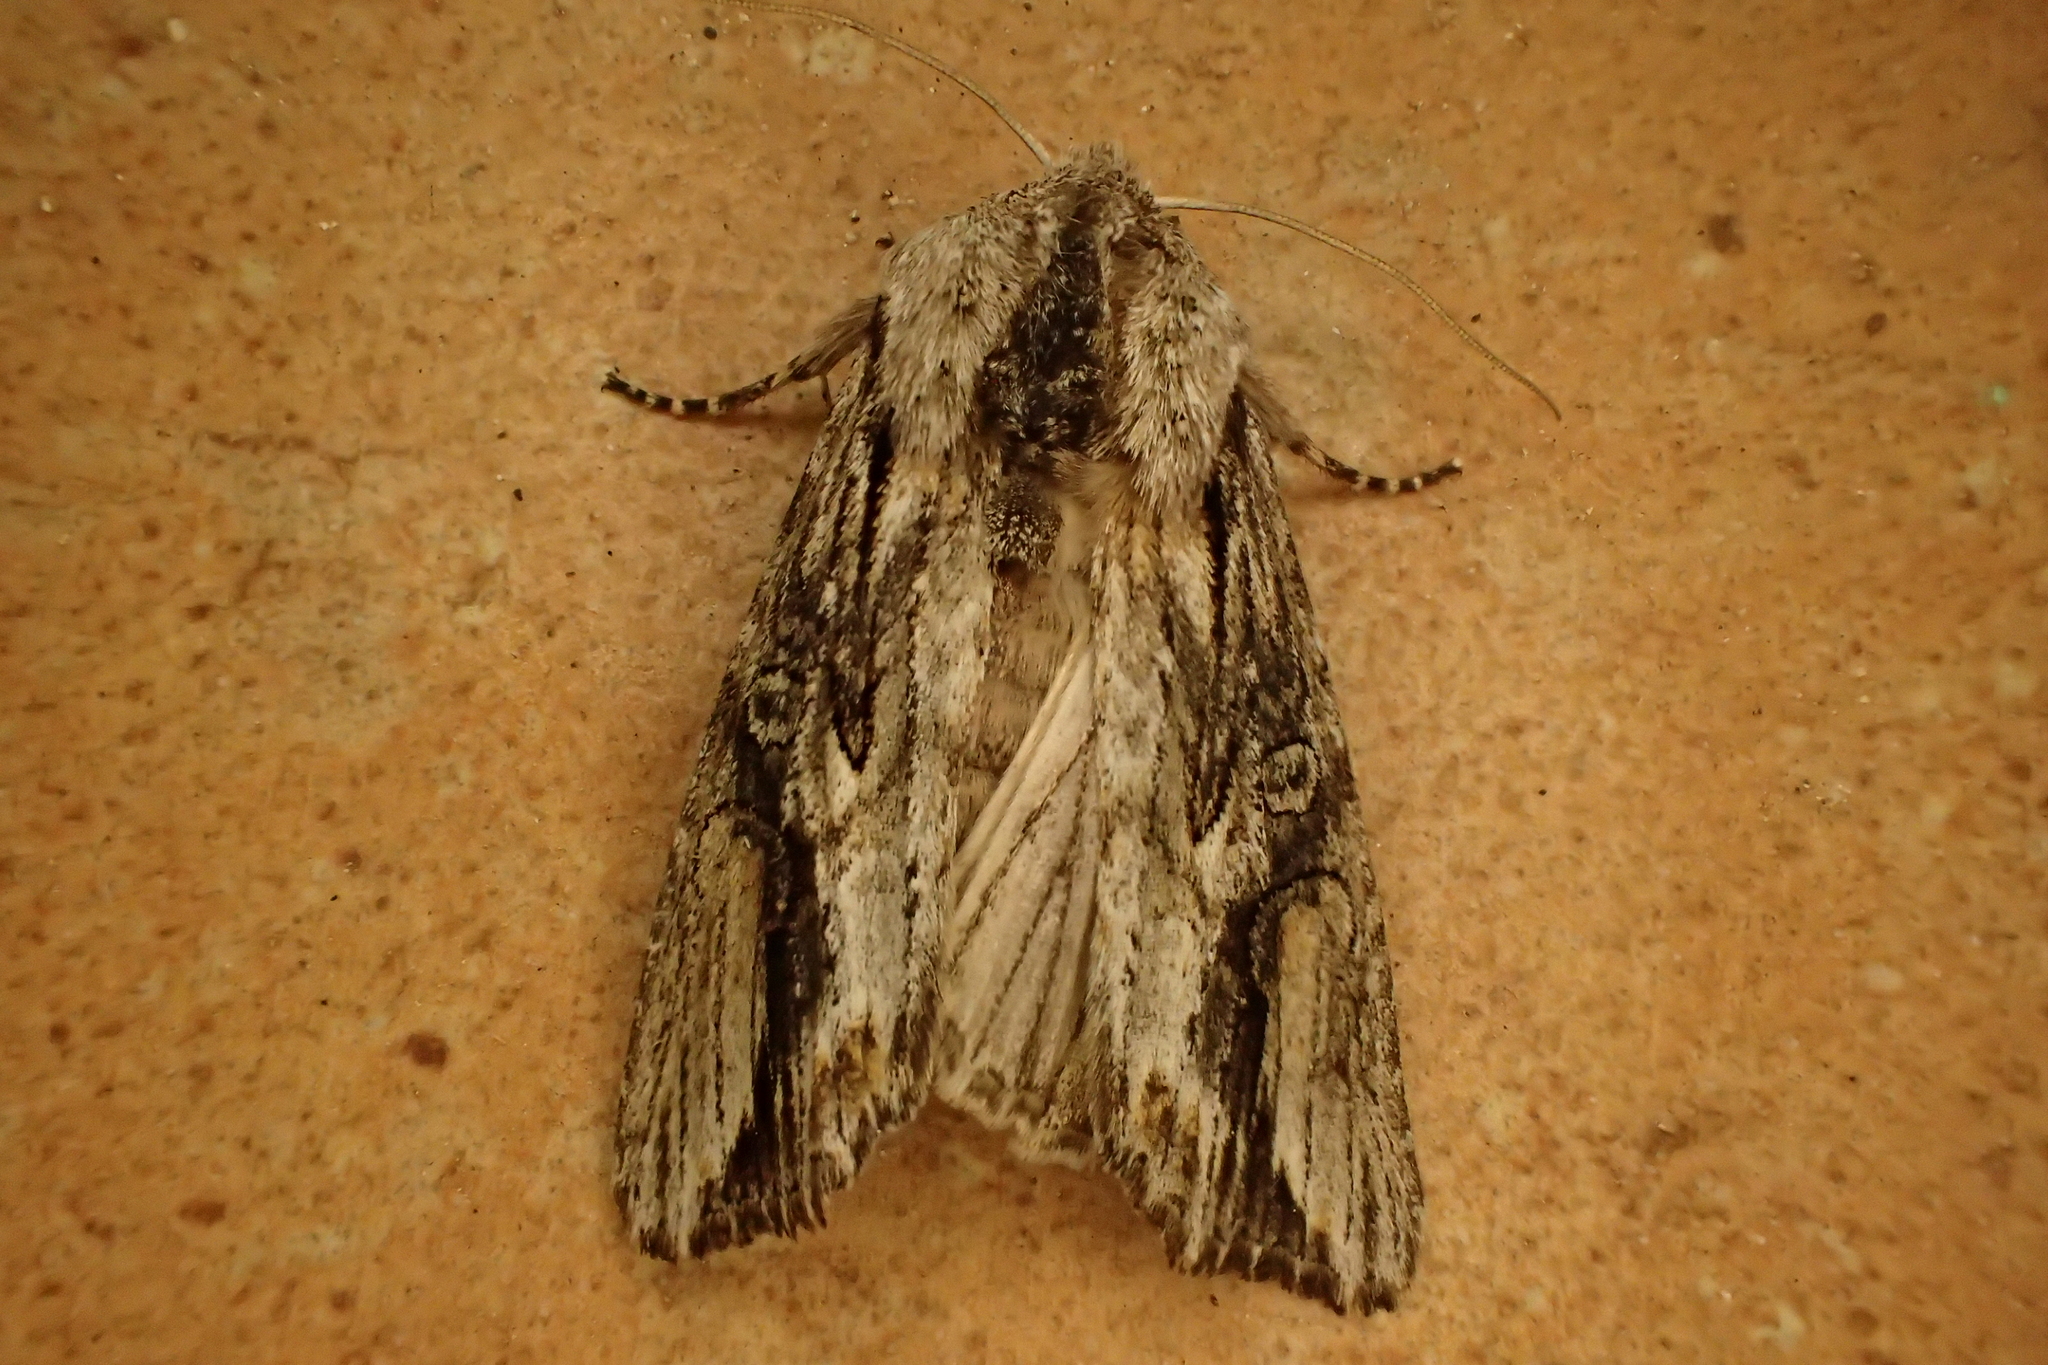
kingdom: Animalia
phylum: Arthropoda
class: Insecta
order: Lepidoptera
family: Noctuidae
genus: Egira
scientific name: Egira conspicillaris
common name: Silver cloud
